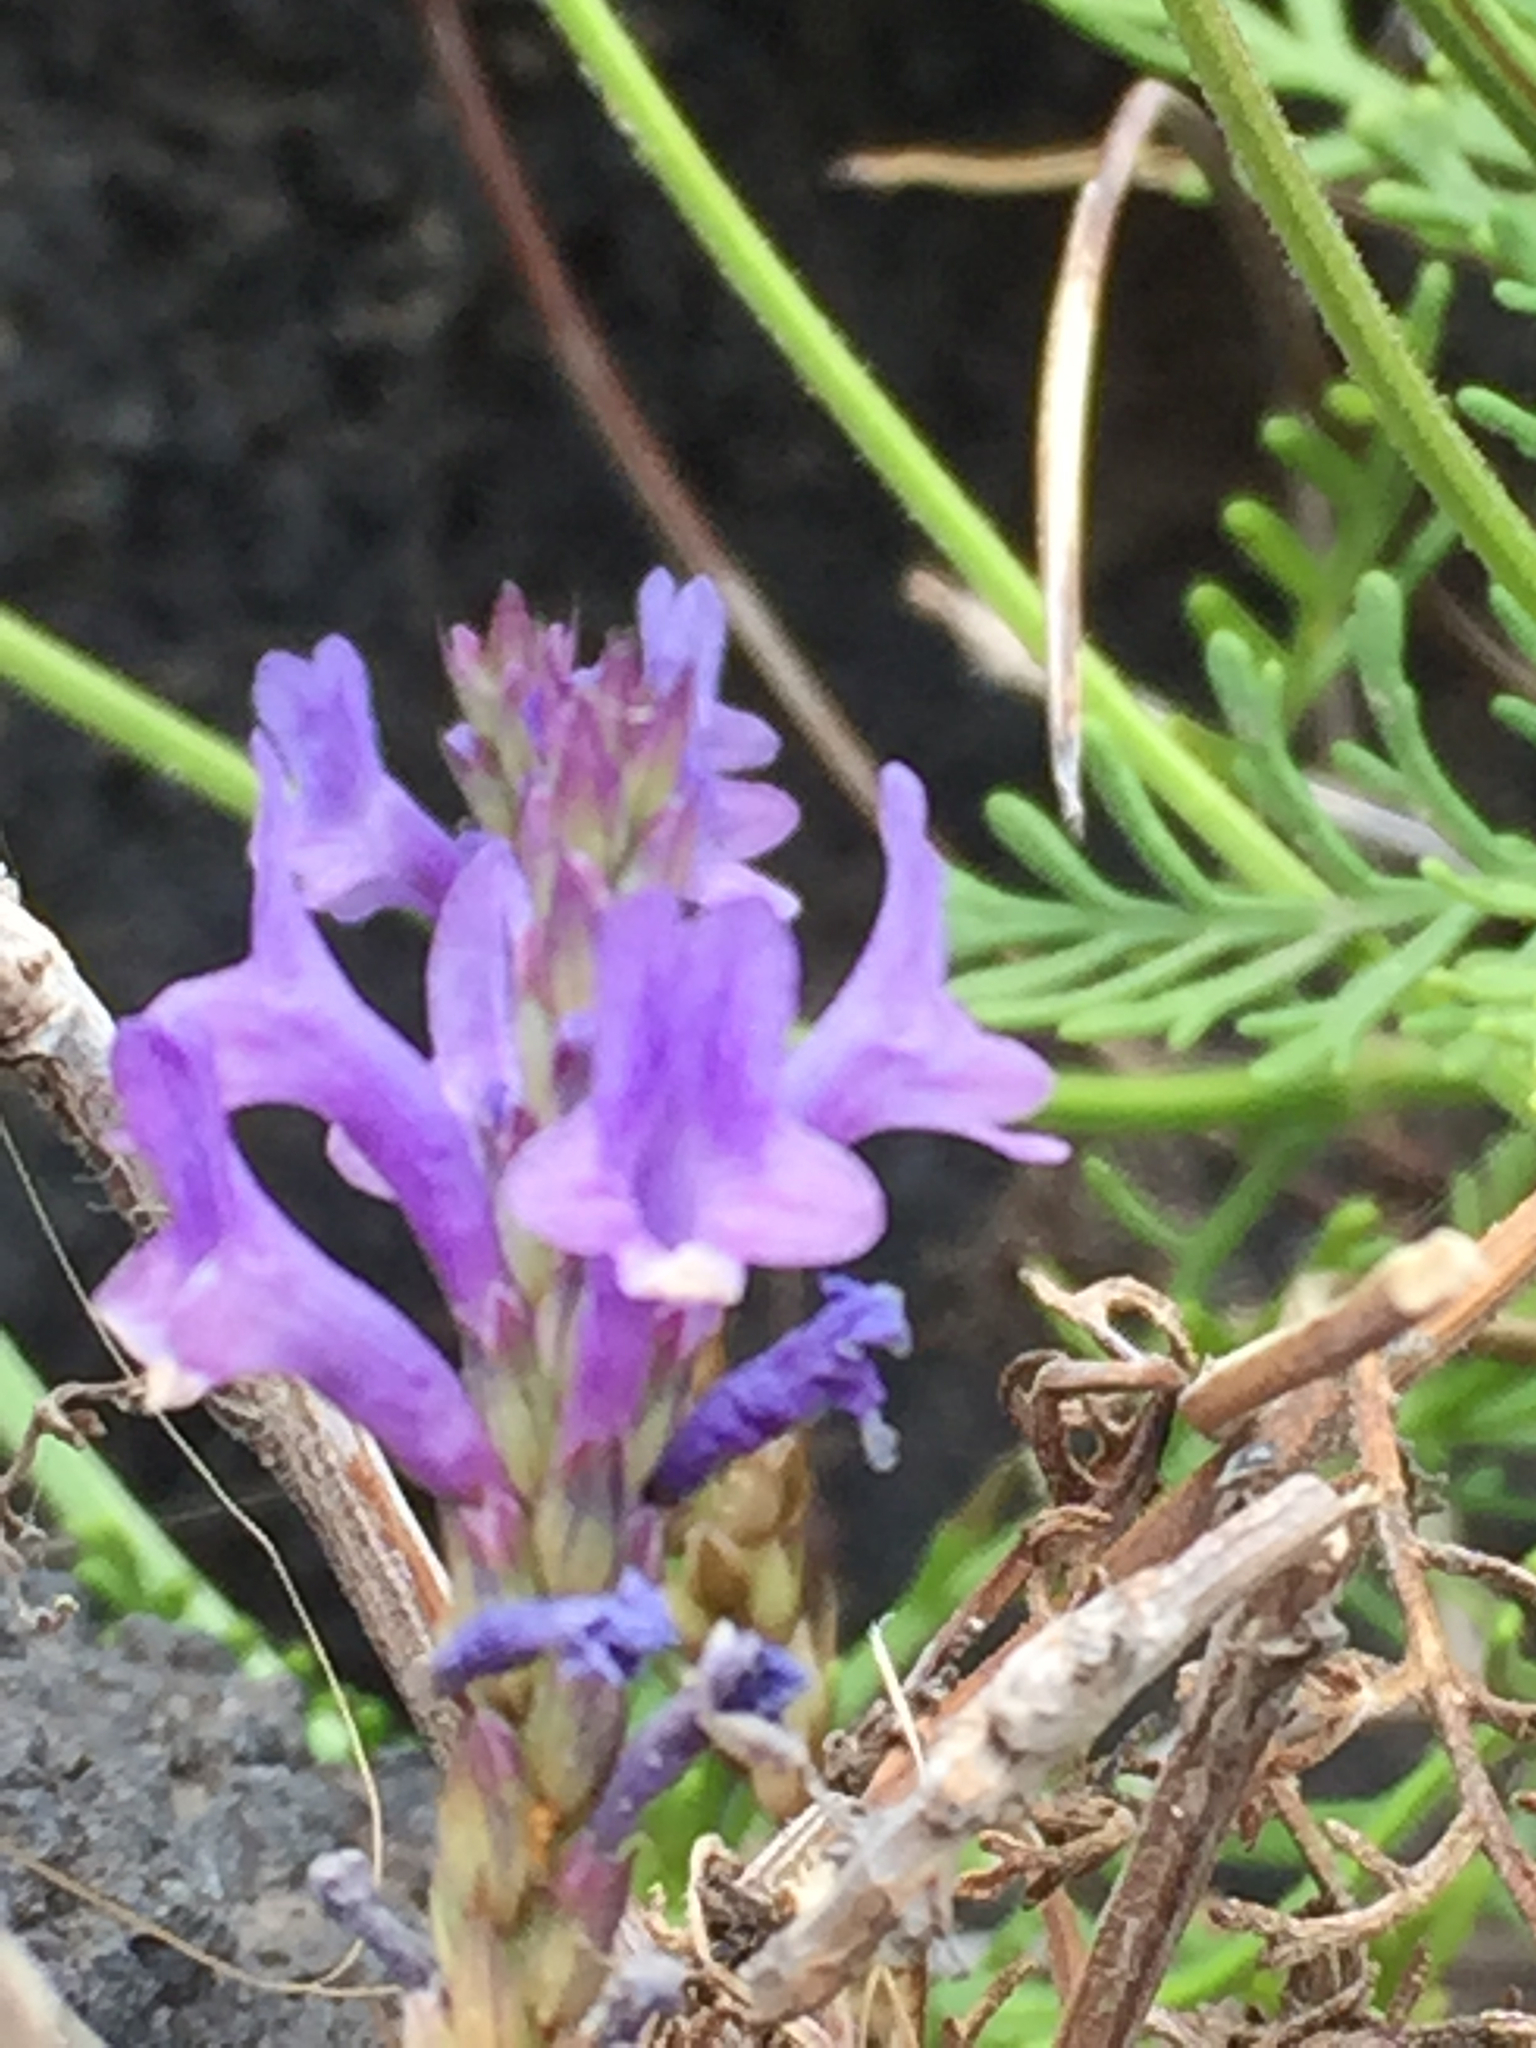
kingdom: Plantae
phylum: Tracheophyta
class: Magnoliopsida
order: Lamiales
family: Lamiaceae
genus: Lavandula
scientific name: Lavandula canariensis
